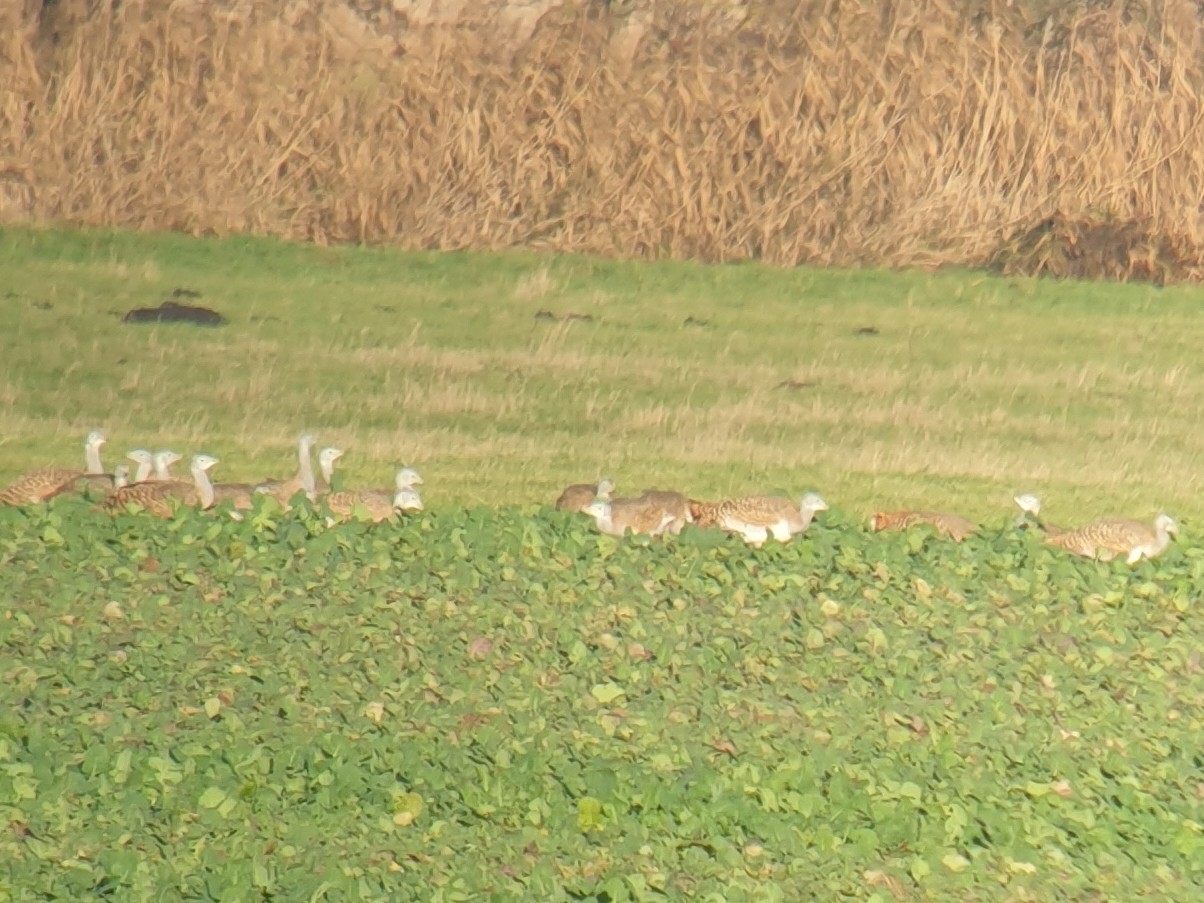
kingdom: Animalia
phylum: Chordata
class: Aves
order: Otidiformes
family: Otididae
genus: Otis
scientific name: Otis tarda
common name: Great bustard
